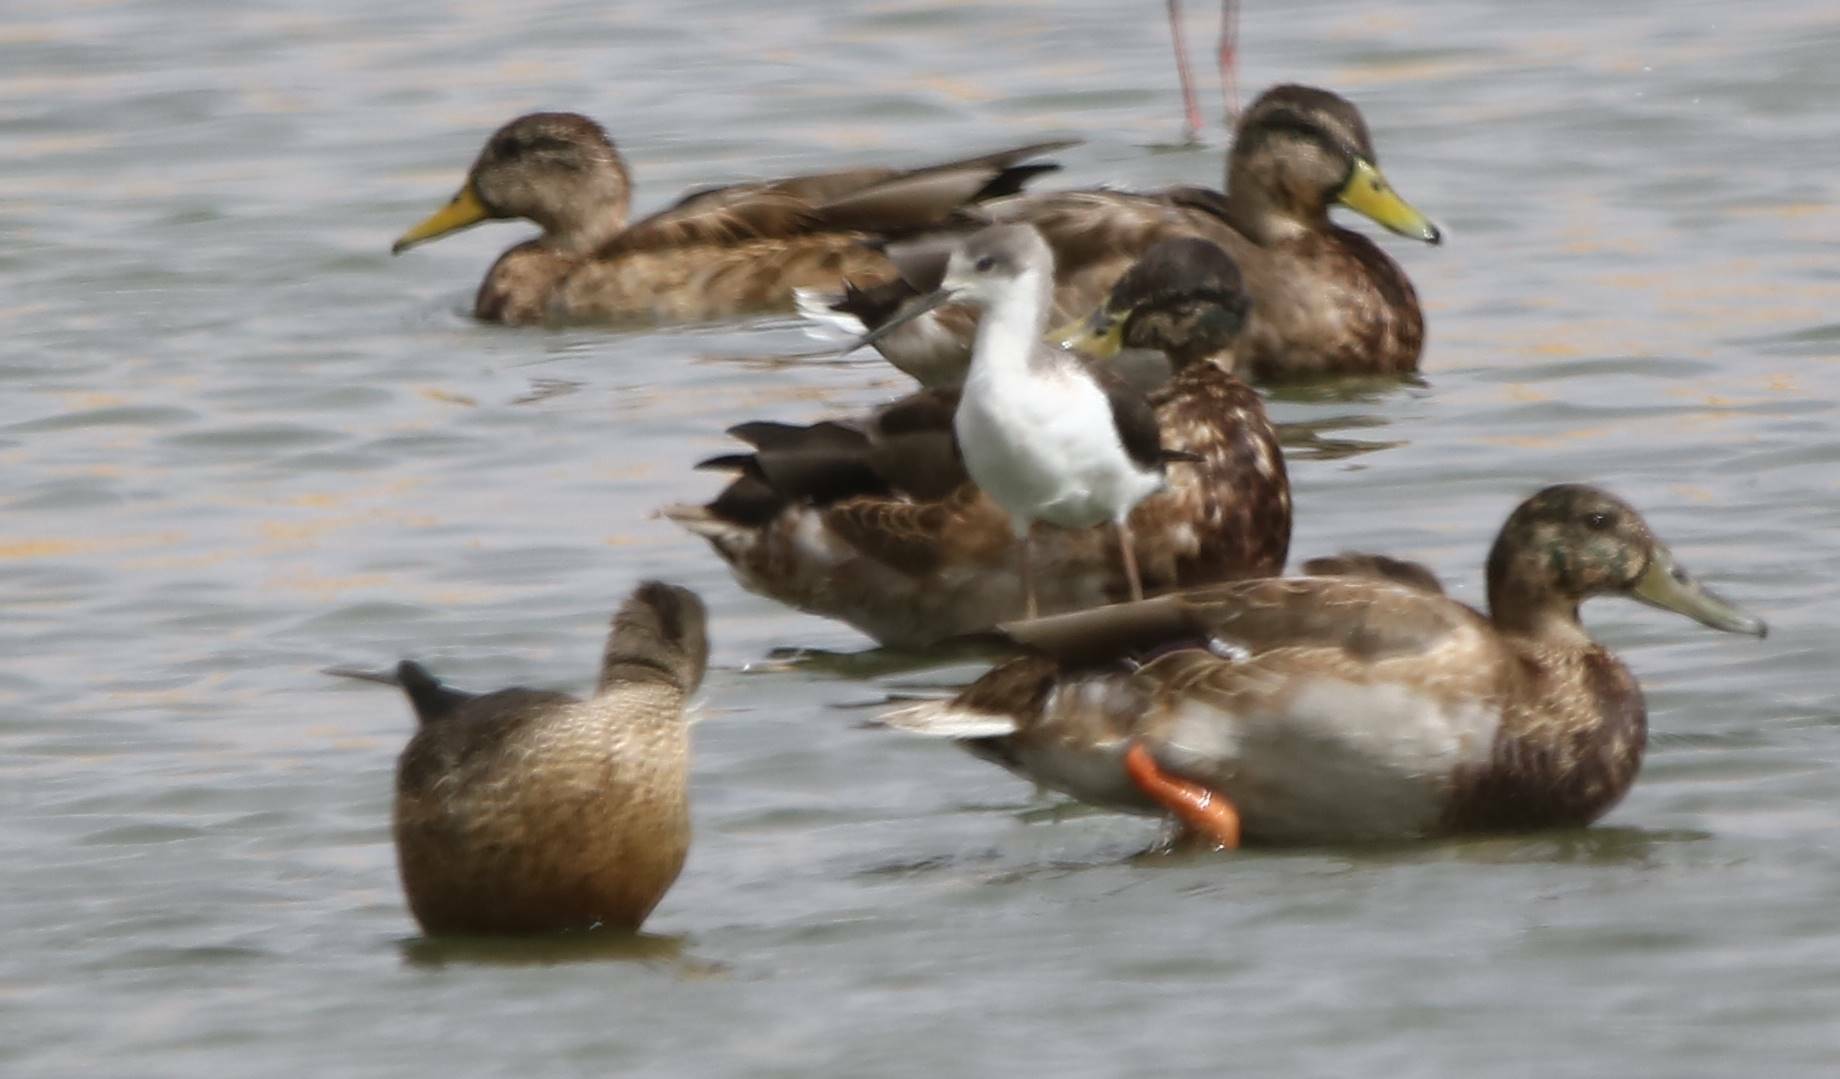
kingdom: Animalia
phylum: Chordata
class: Aves
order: Anseriformes
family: Anatidae
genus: Anas
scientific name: Anas platyrhynchos
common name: Mallard
